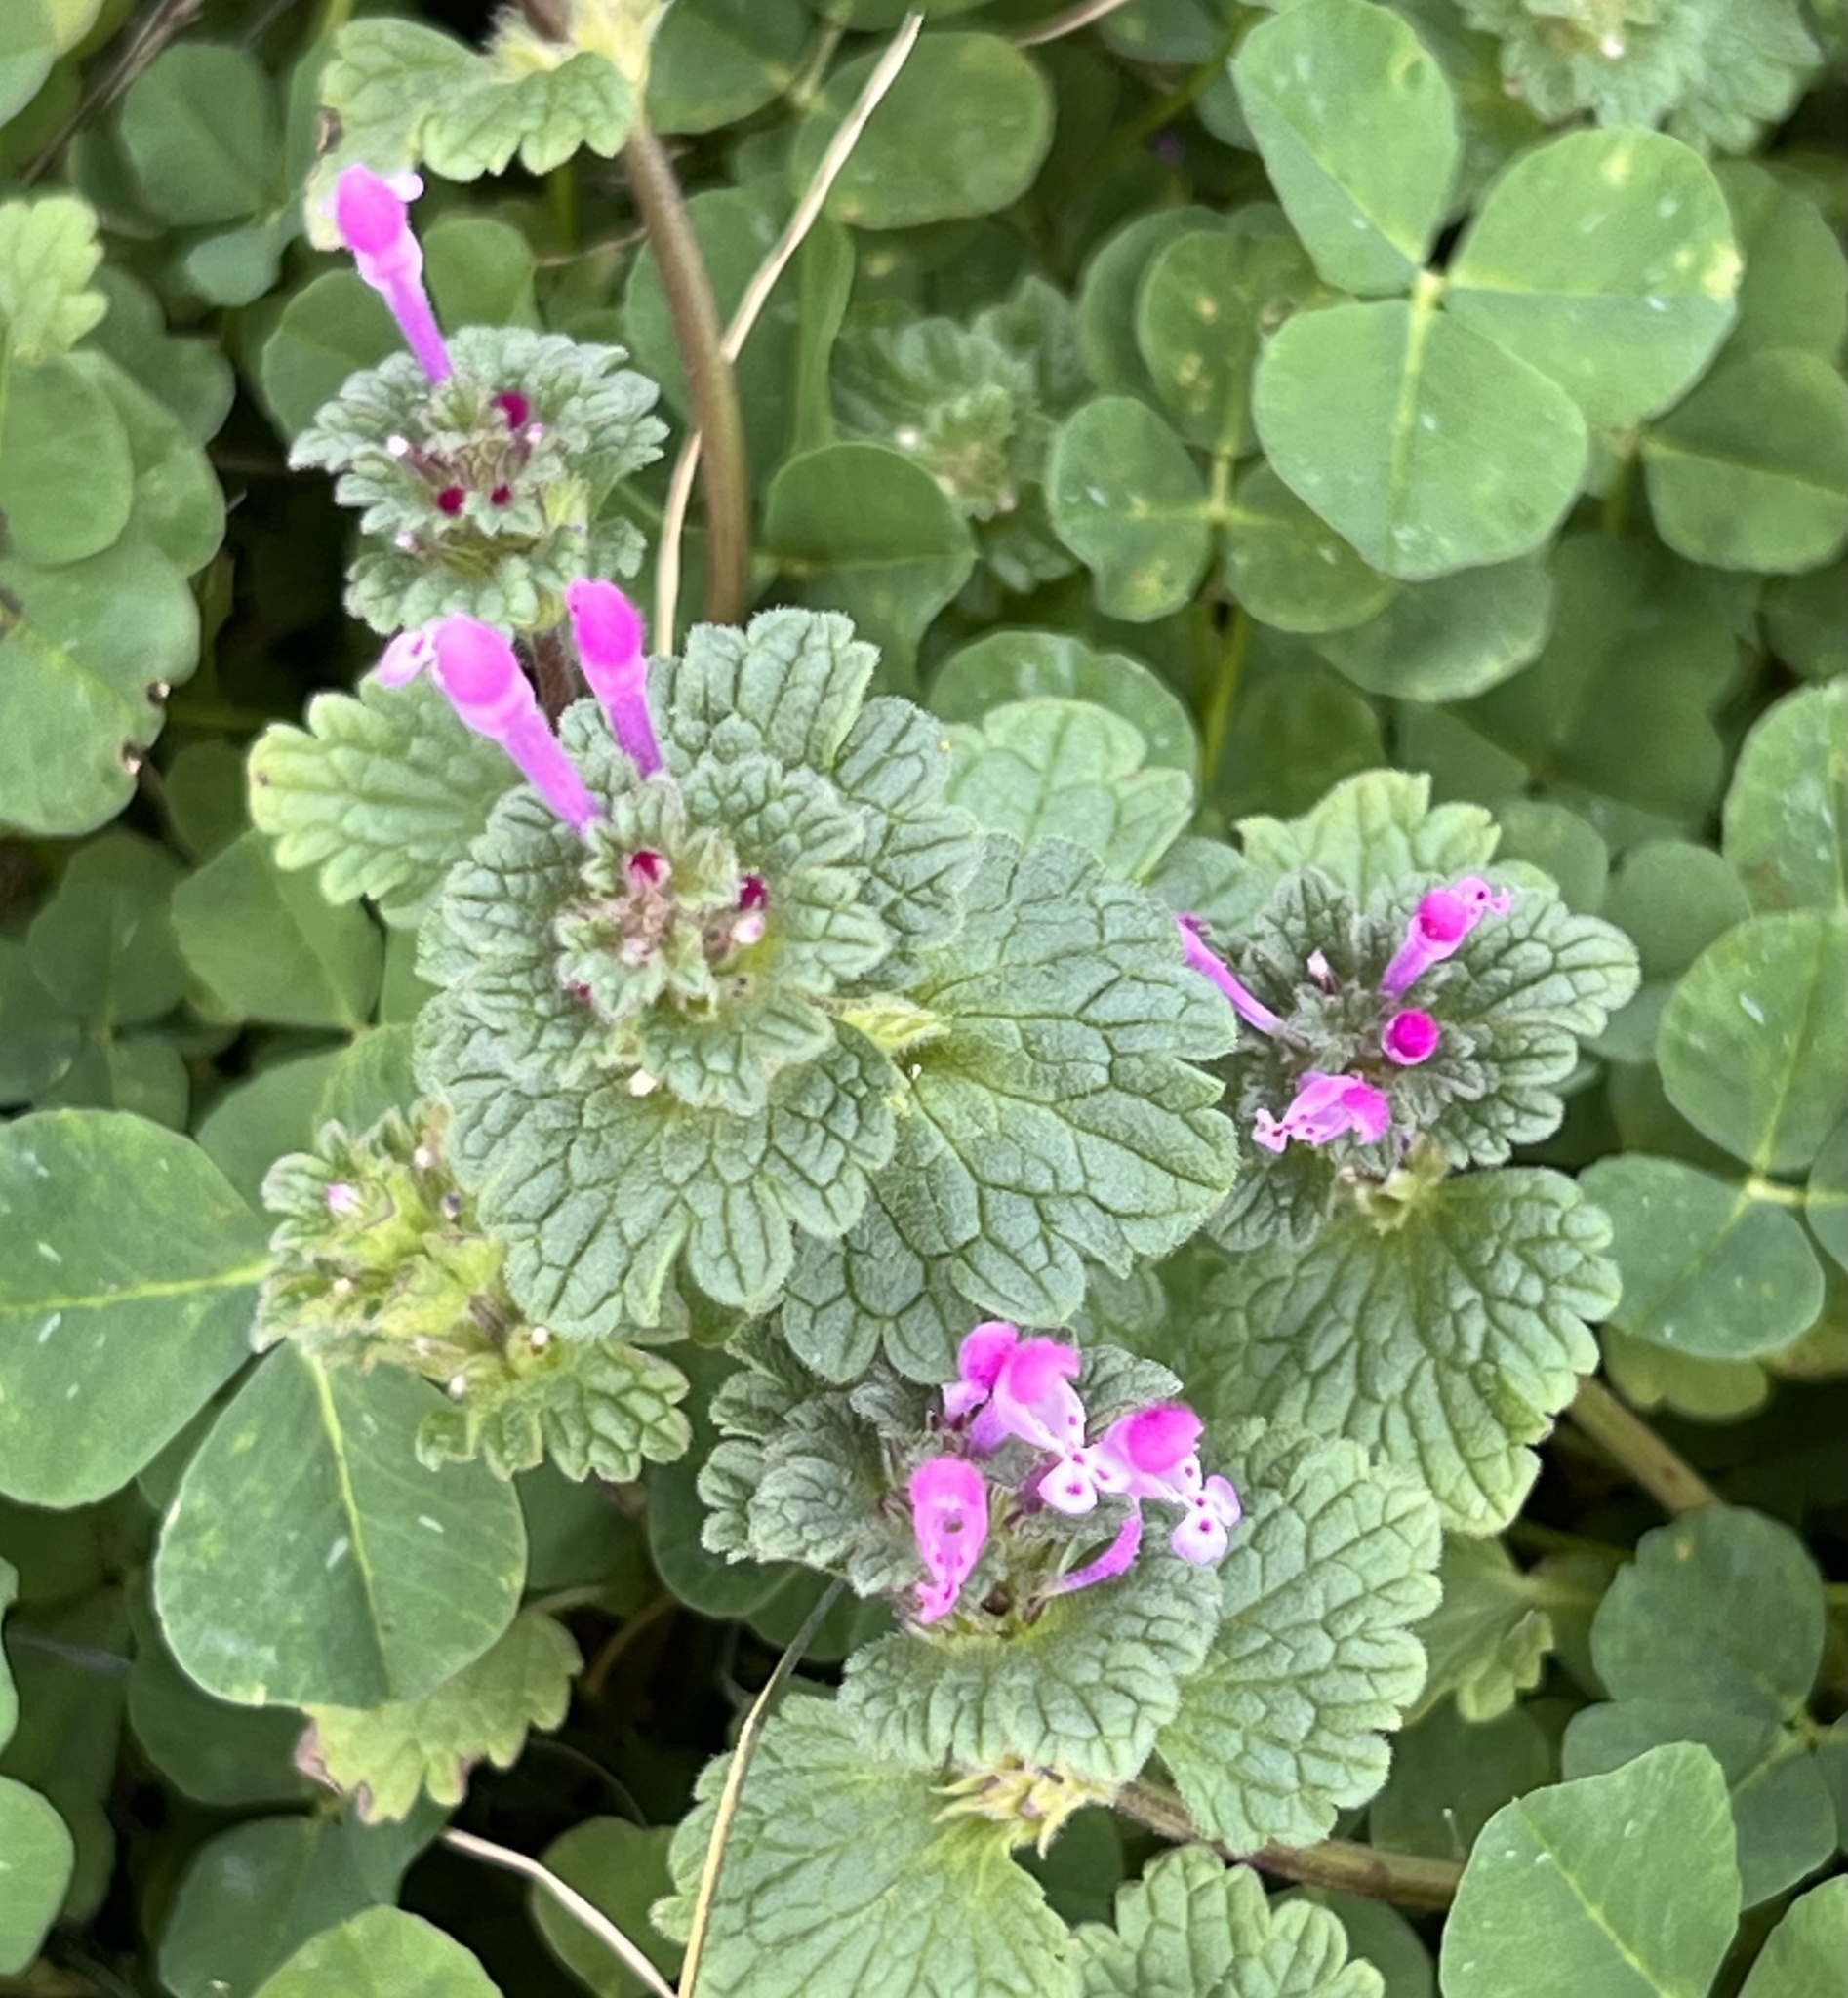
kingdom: Plantae
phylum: Tracheophyta
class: Magnoliopsida
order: Lamiales
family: Lamiaceae
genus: Lamium
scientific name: Lamium amplexicaule
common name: Henbit dead-nettle
